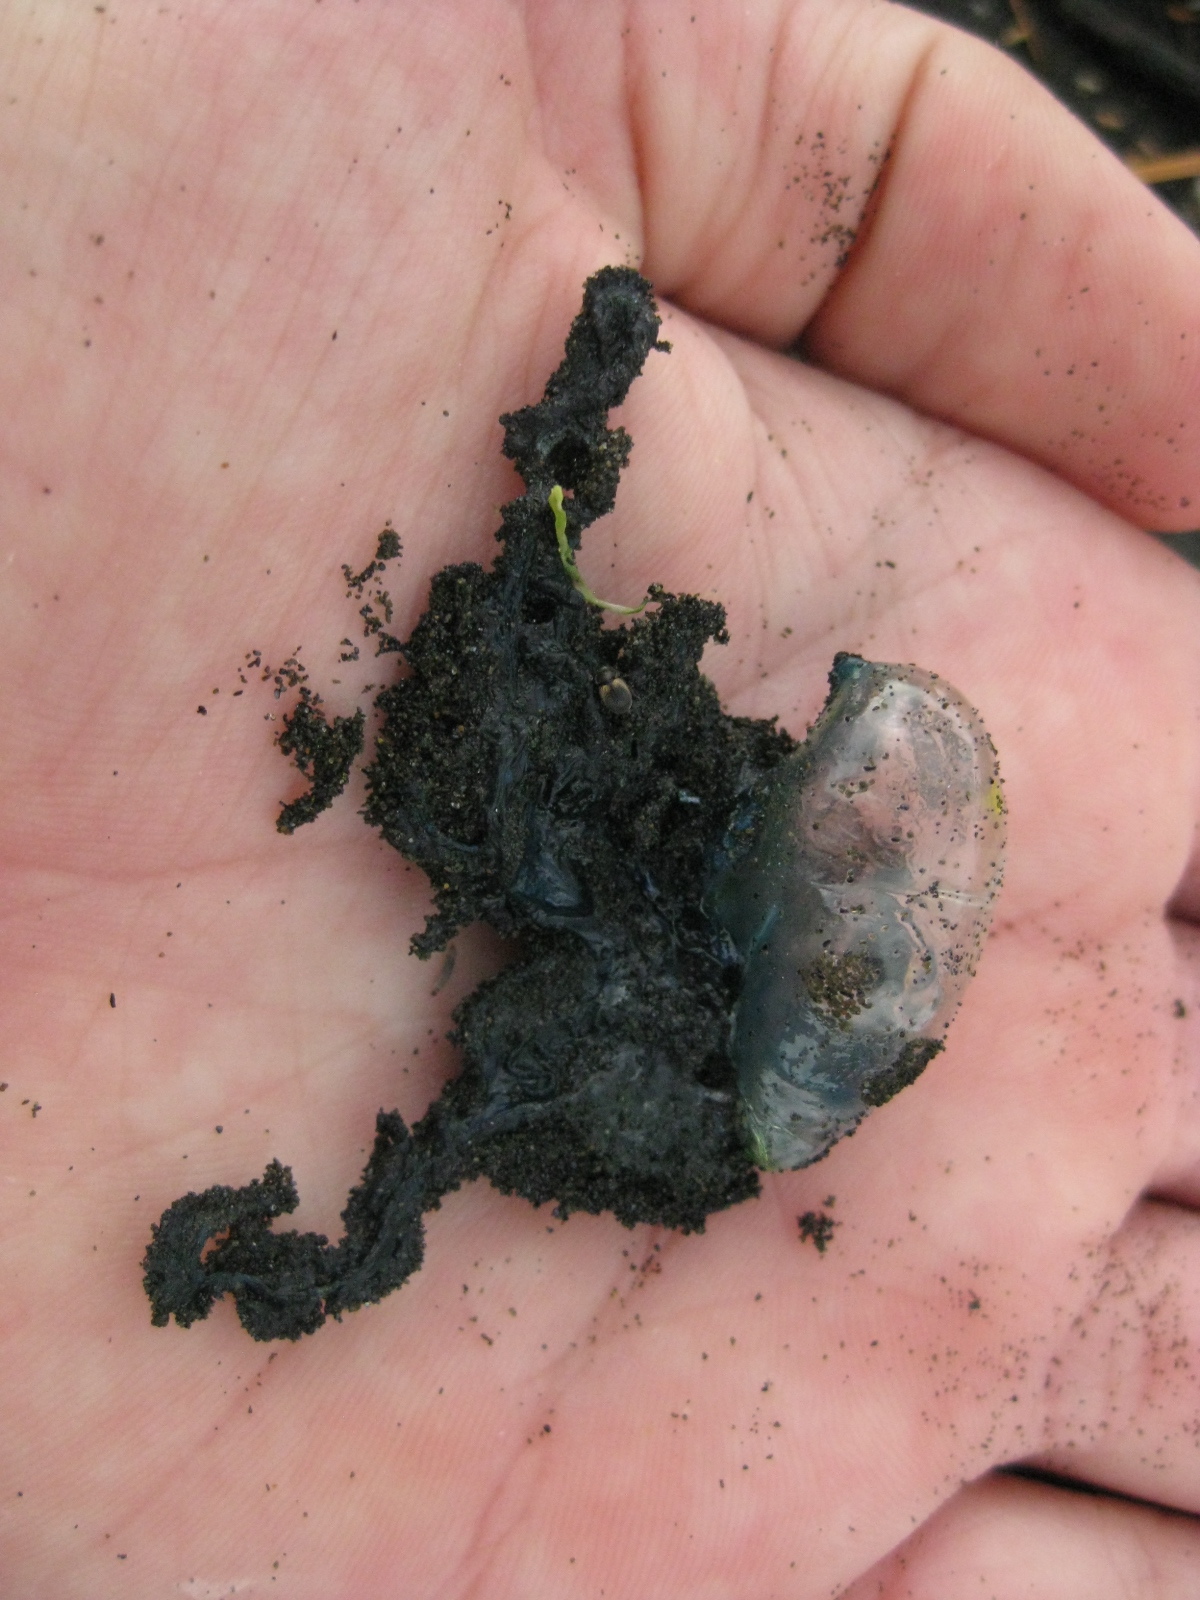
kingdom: Animalia
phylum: Cnidaria
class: Hydrozoa
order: Siphonophorae
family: Physaliidae
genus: Physalia
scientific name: Physalia
